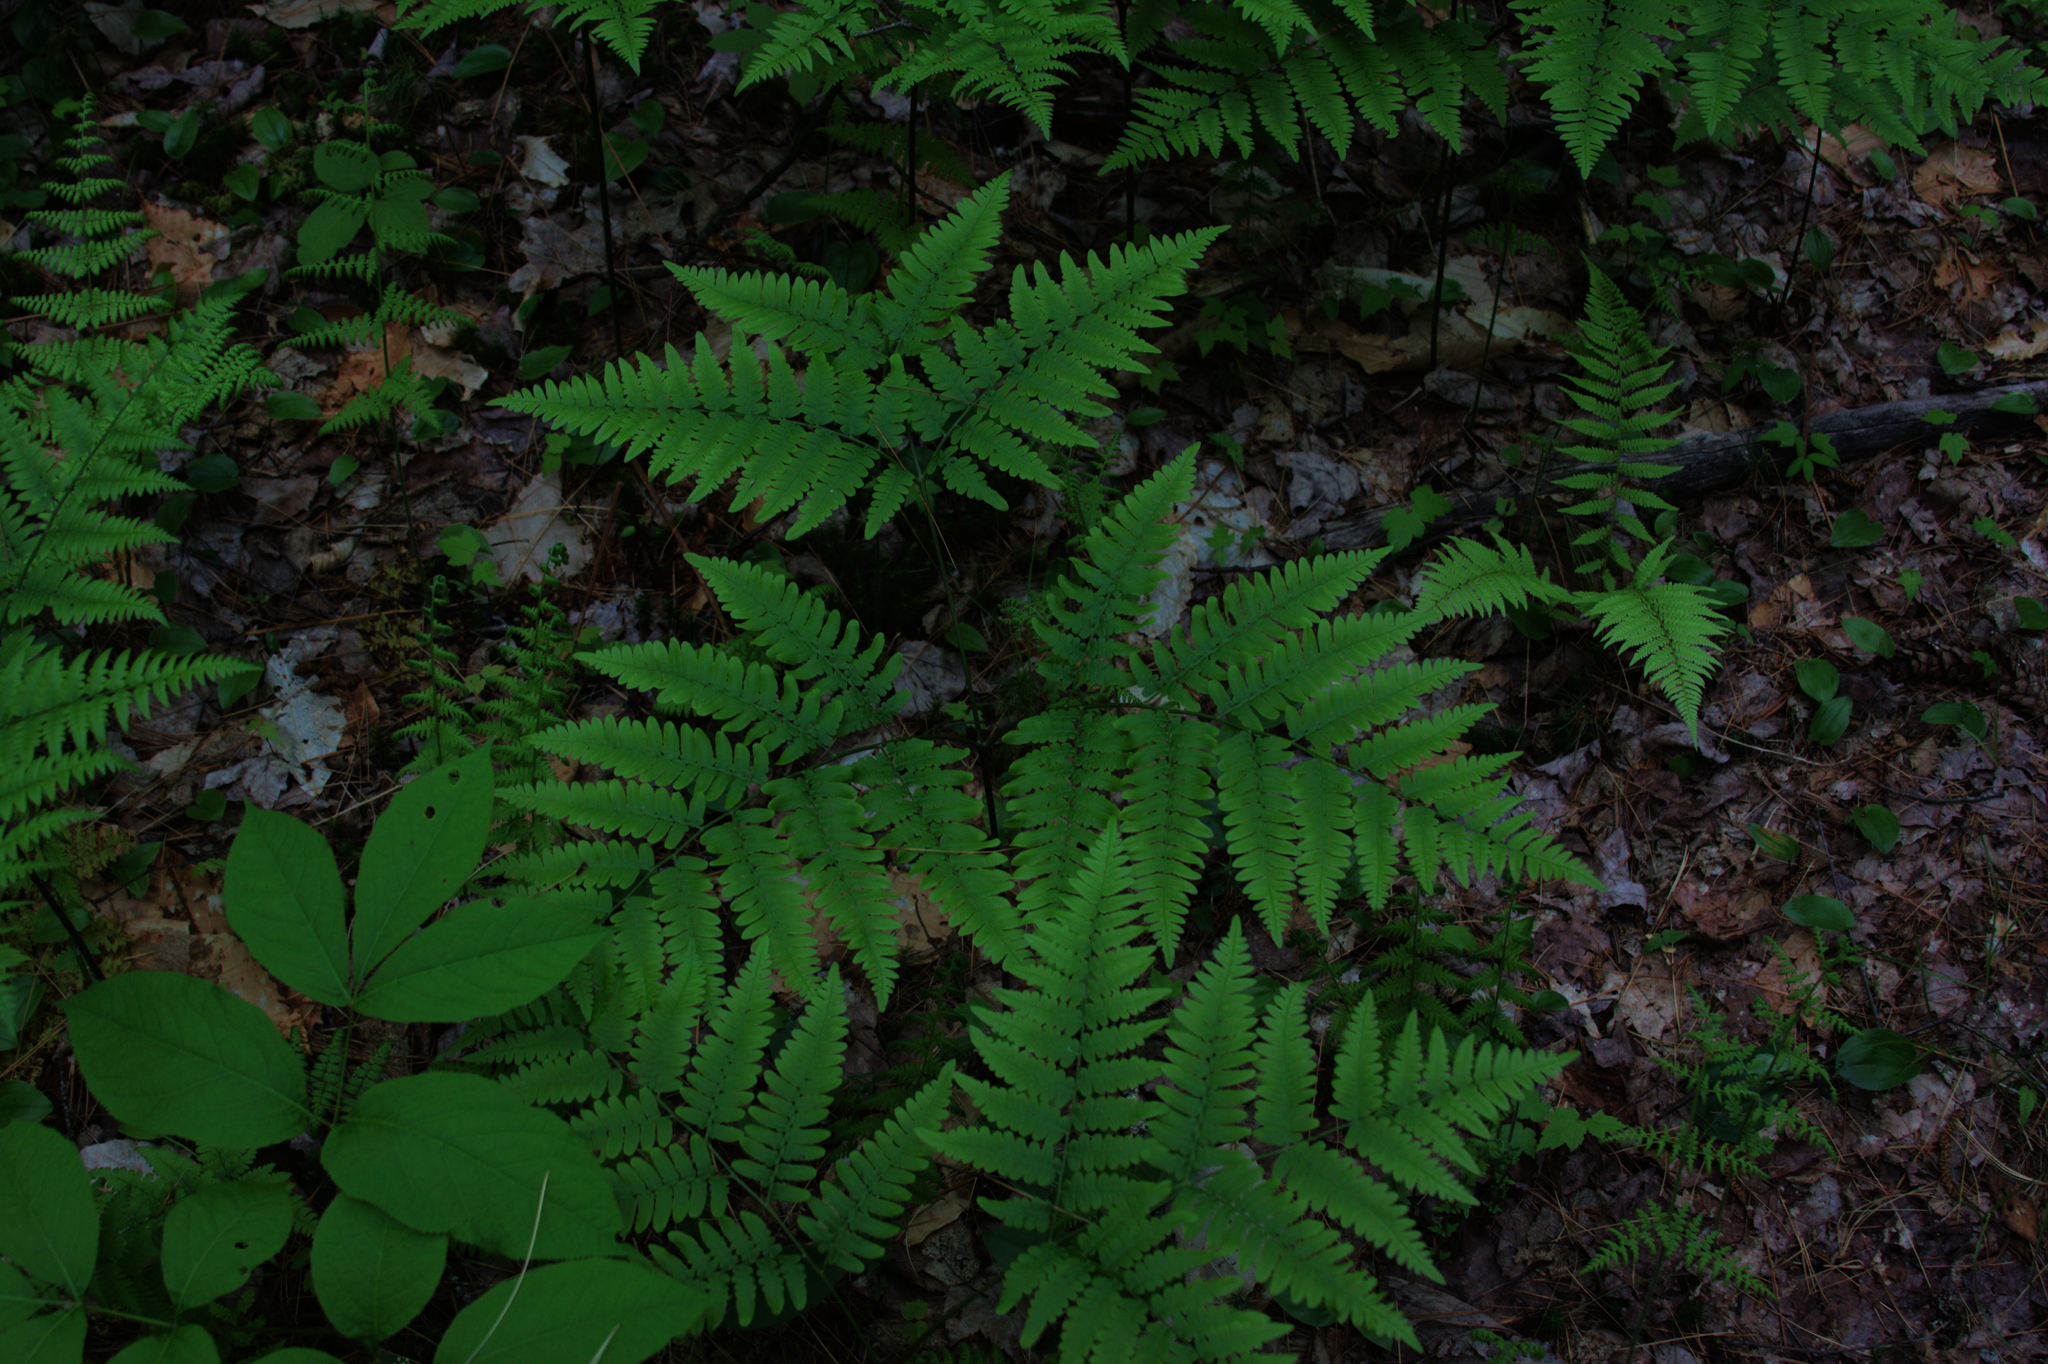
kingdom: Plantae
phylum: Tracheophyta
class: Polypodiopsida
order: Polypodiales
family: Dennstaedtiaceae
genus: Pteridium
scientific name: Pteridium aquilinum
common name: Bracken
